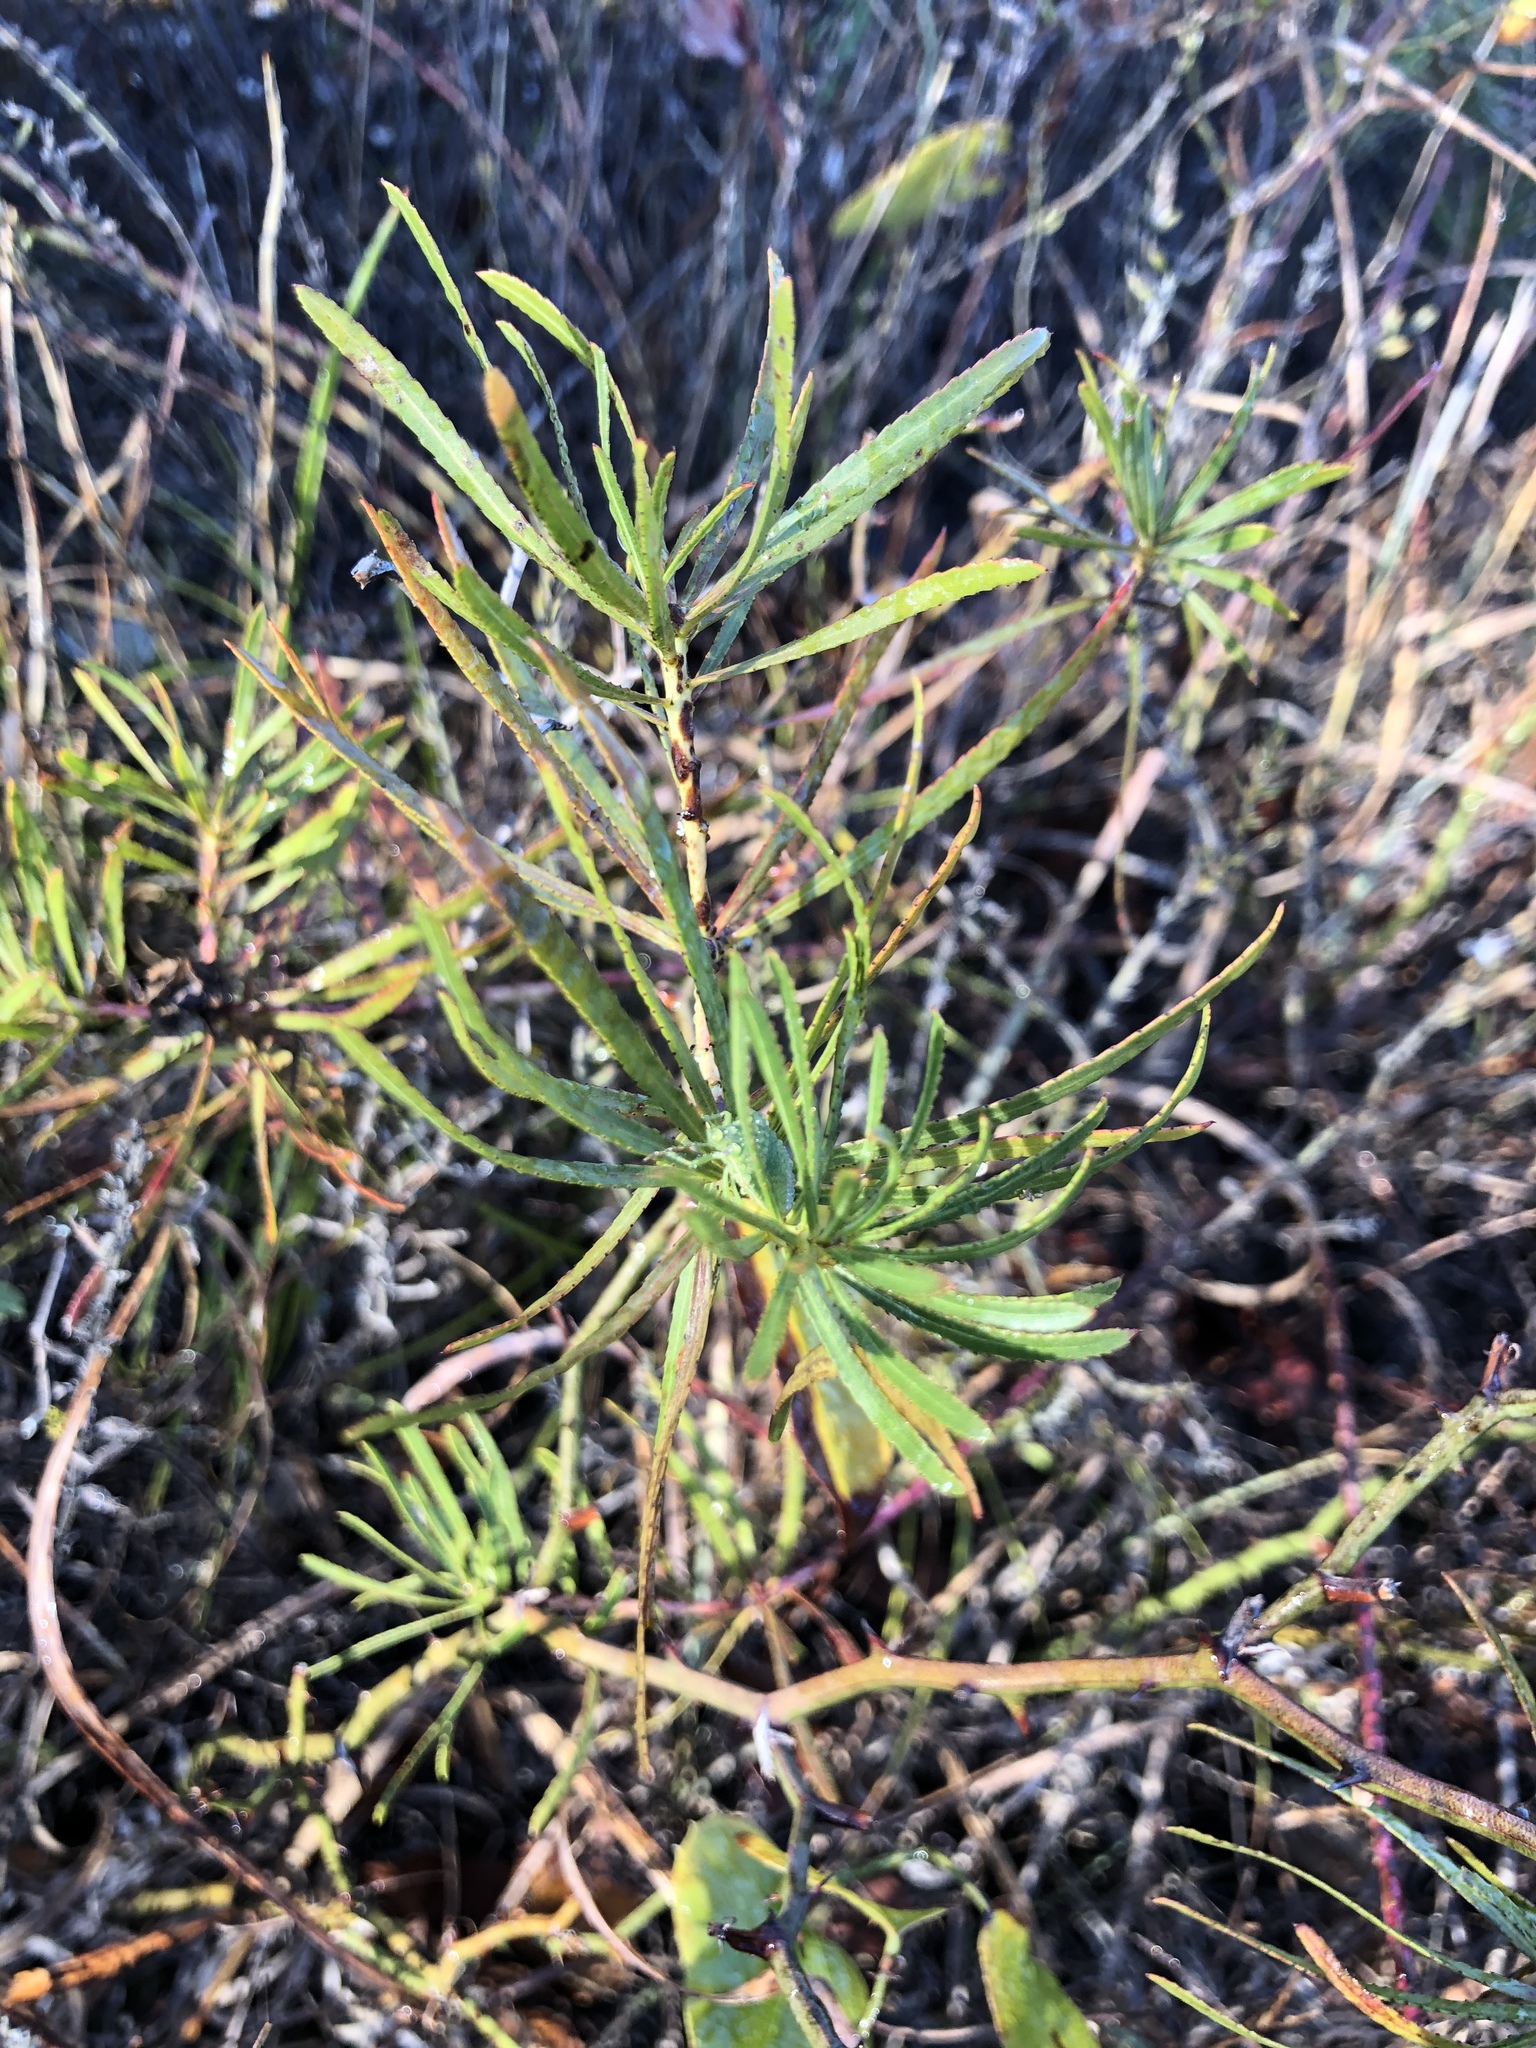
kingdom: Plantae
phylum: Tracheophyta
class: Magnoliopsida
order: Malpighiales
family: Euphorbiaceae
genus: Stillingia
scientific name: Stillingia texana
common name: Texas stillingia
